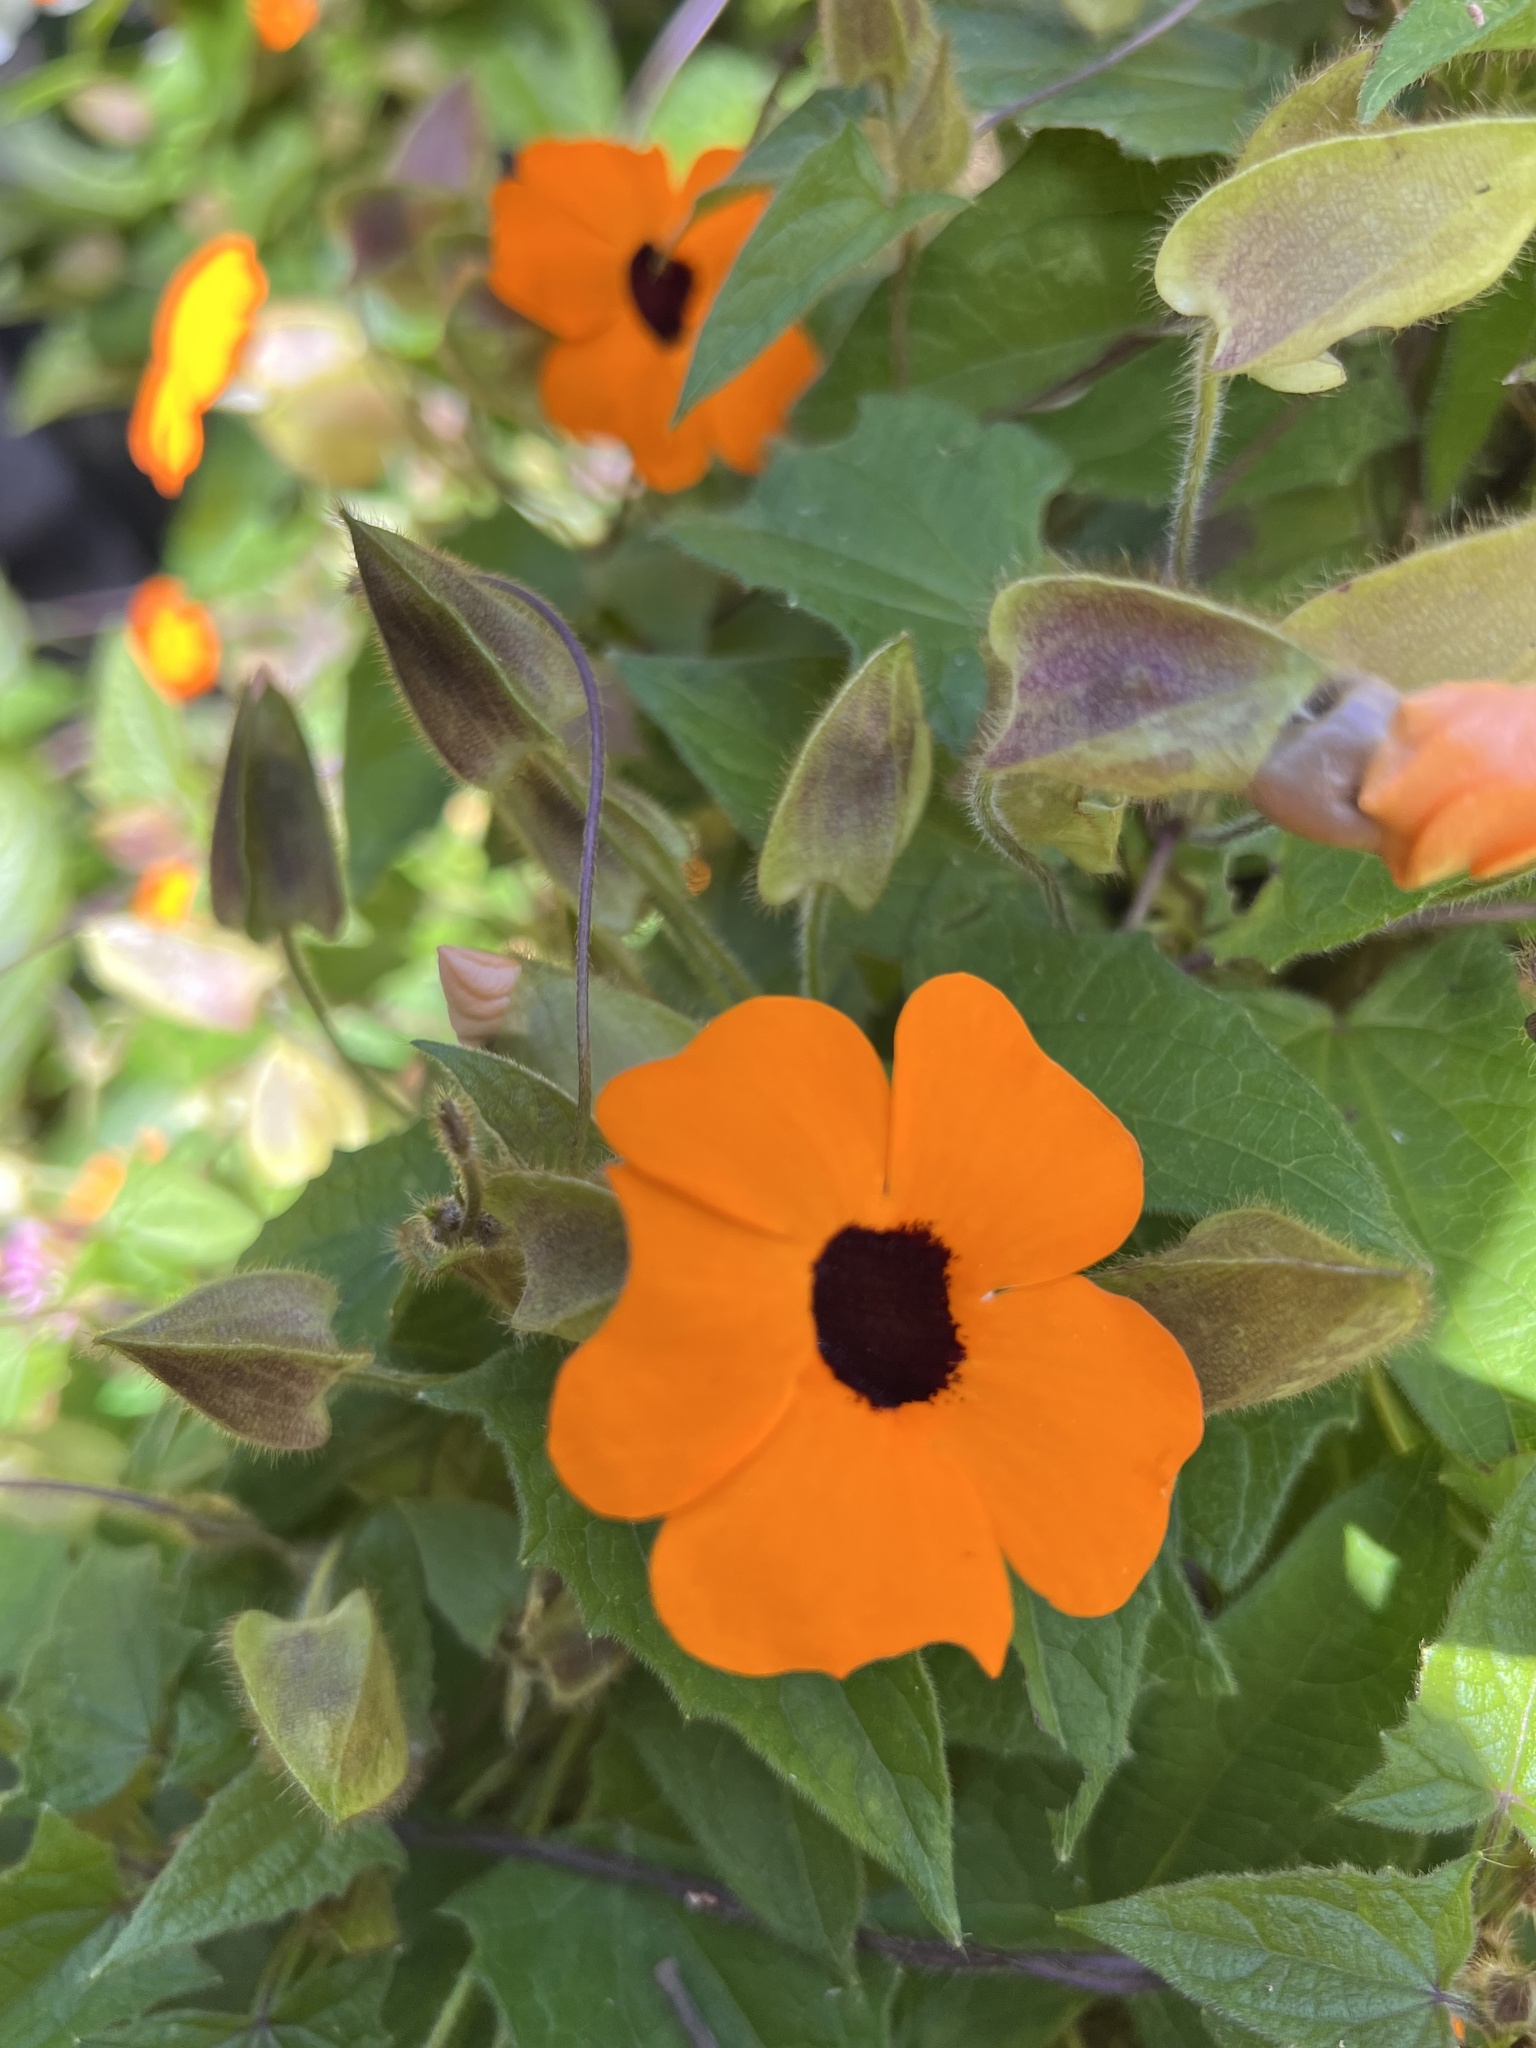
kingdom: Plantae
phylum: Tracheophyta
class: Magnoliopsida
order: Lamiales
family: Acanthaceae
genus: Thunbergia
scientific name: Thunbergia alata
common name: Blackeyed susan vine
